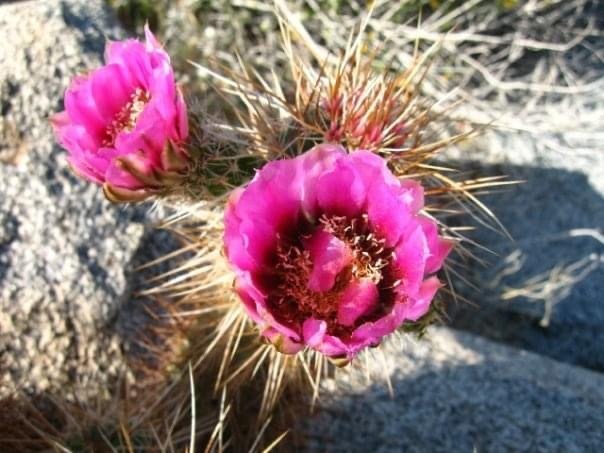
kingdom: Plantae
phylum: Tracheophyta
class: Magnoliopsida
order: Caryophyllales
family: Cactaceae
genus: Echinocereus
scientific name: Echinocereus engelmannii
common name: Engelmann's hedgehog cactus
